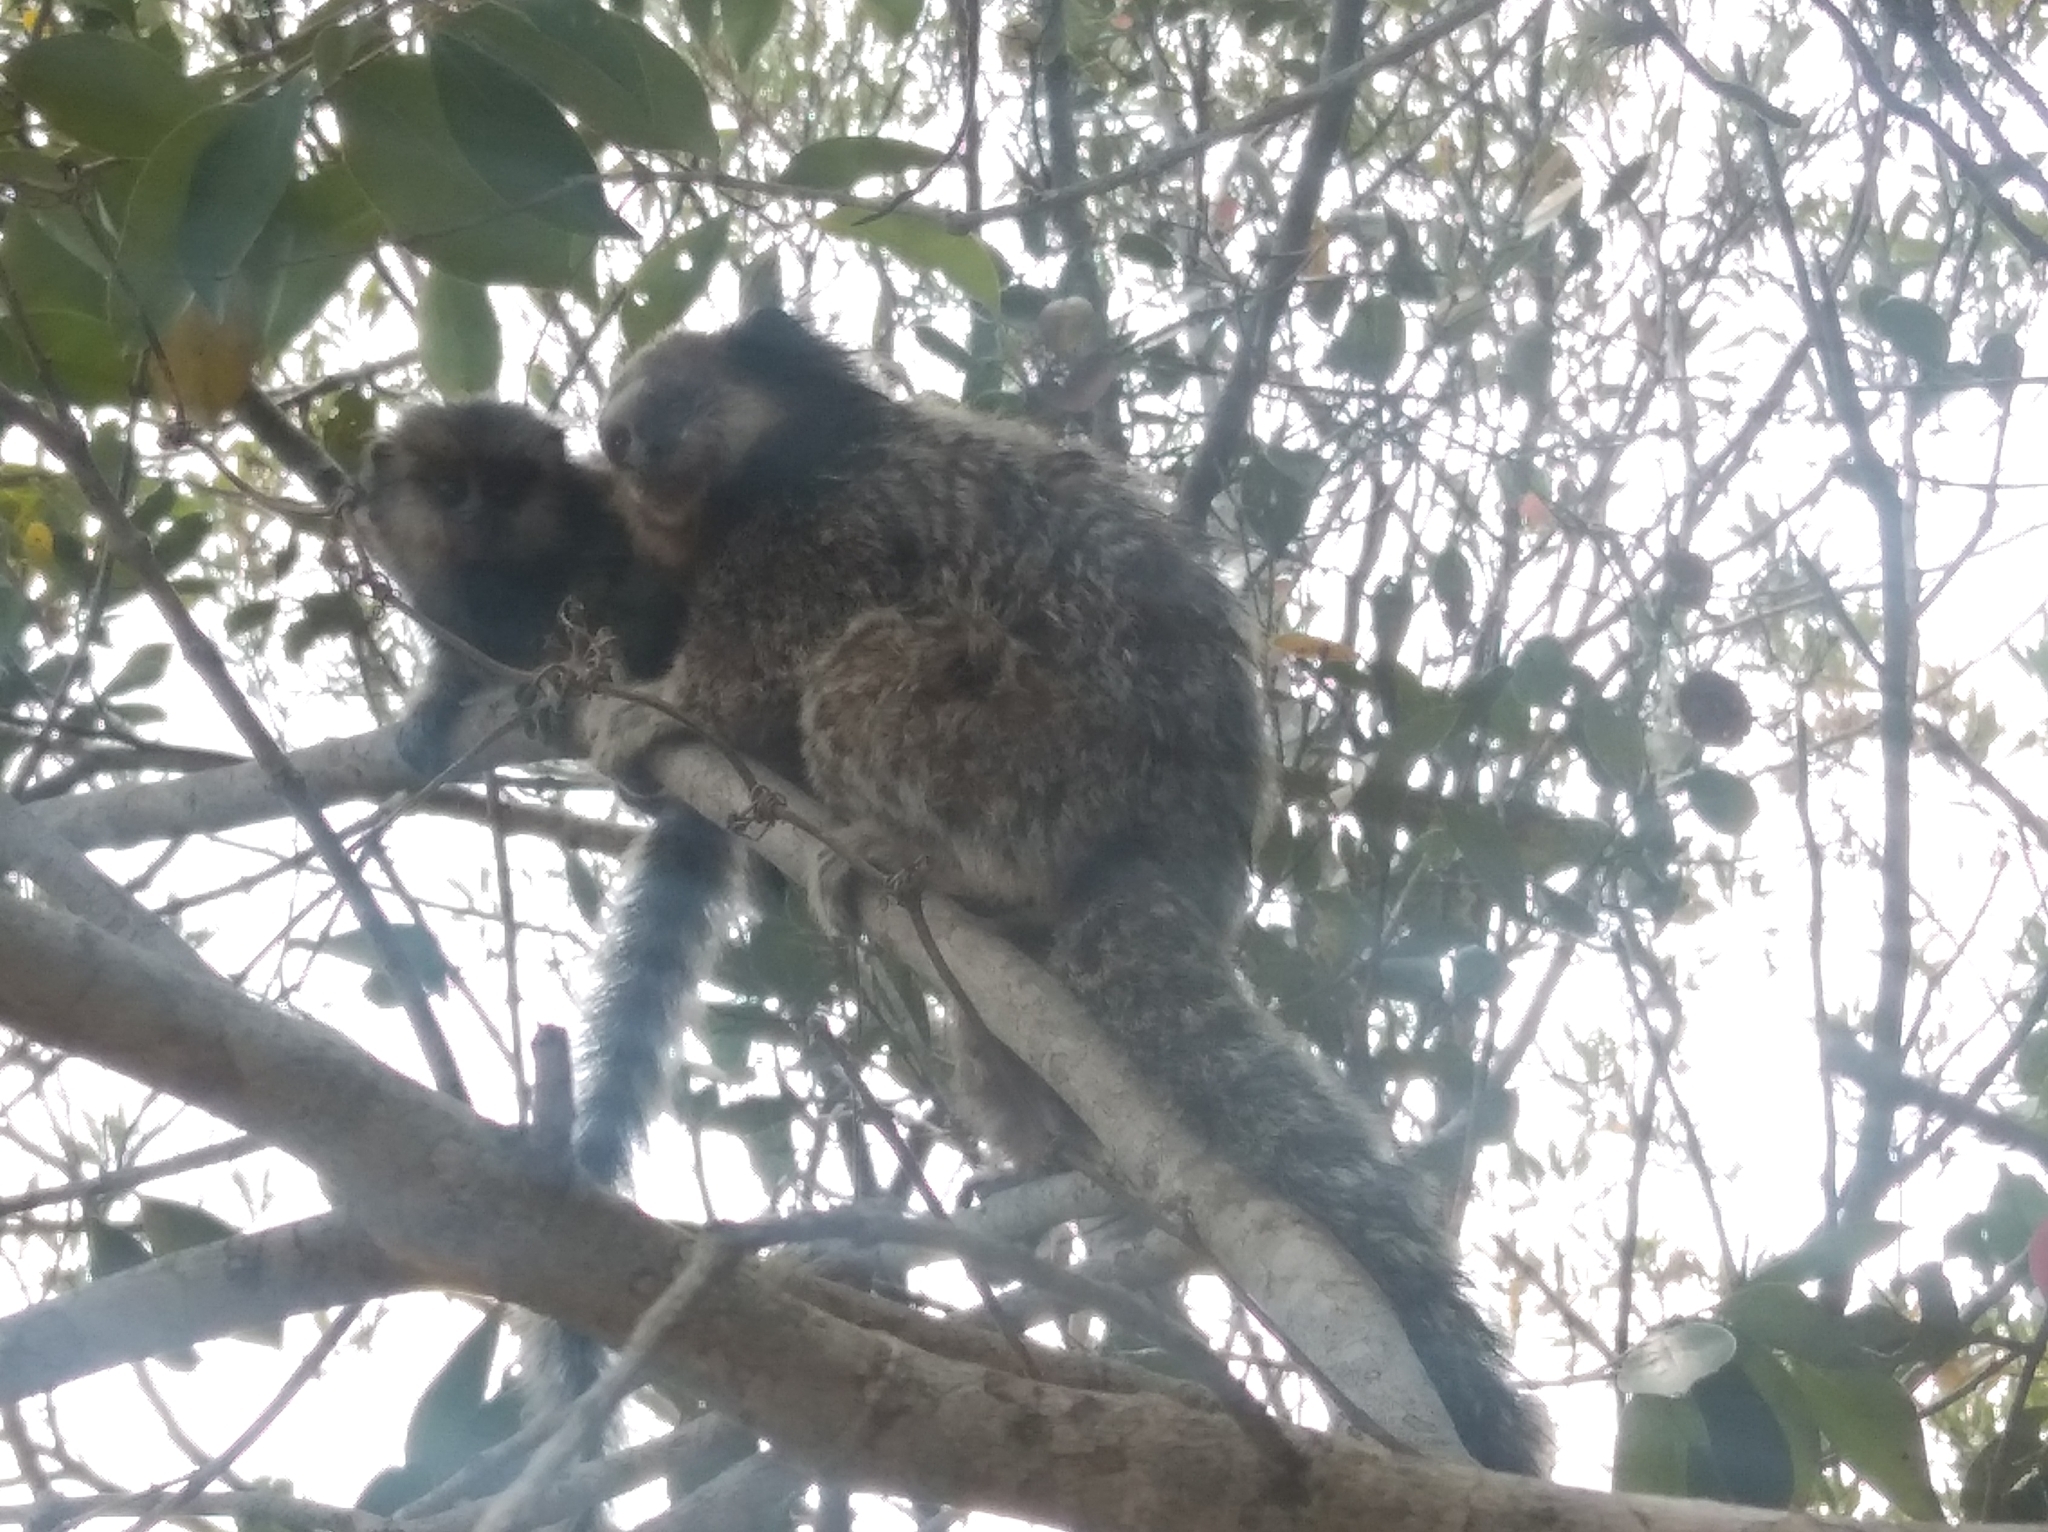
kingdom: Animalia
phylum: Chordata
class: Mammalia
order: Primates
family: Callitrichidae
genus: Callithrix
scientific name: Callithrix penicillata
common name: Black-tufted marmoset
